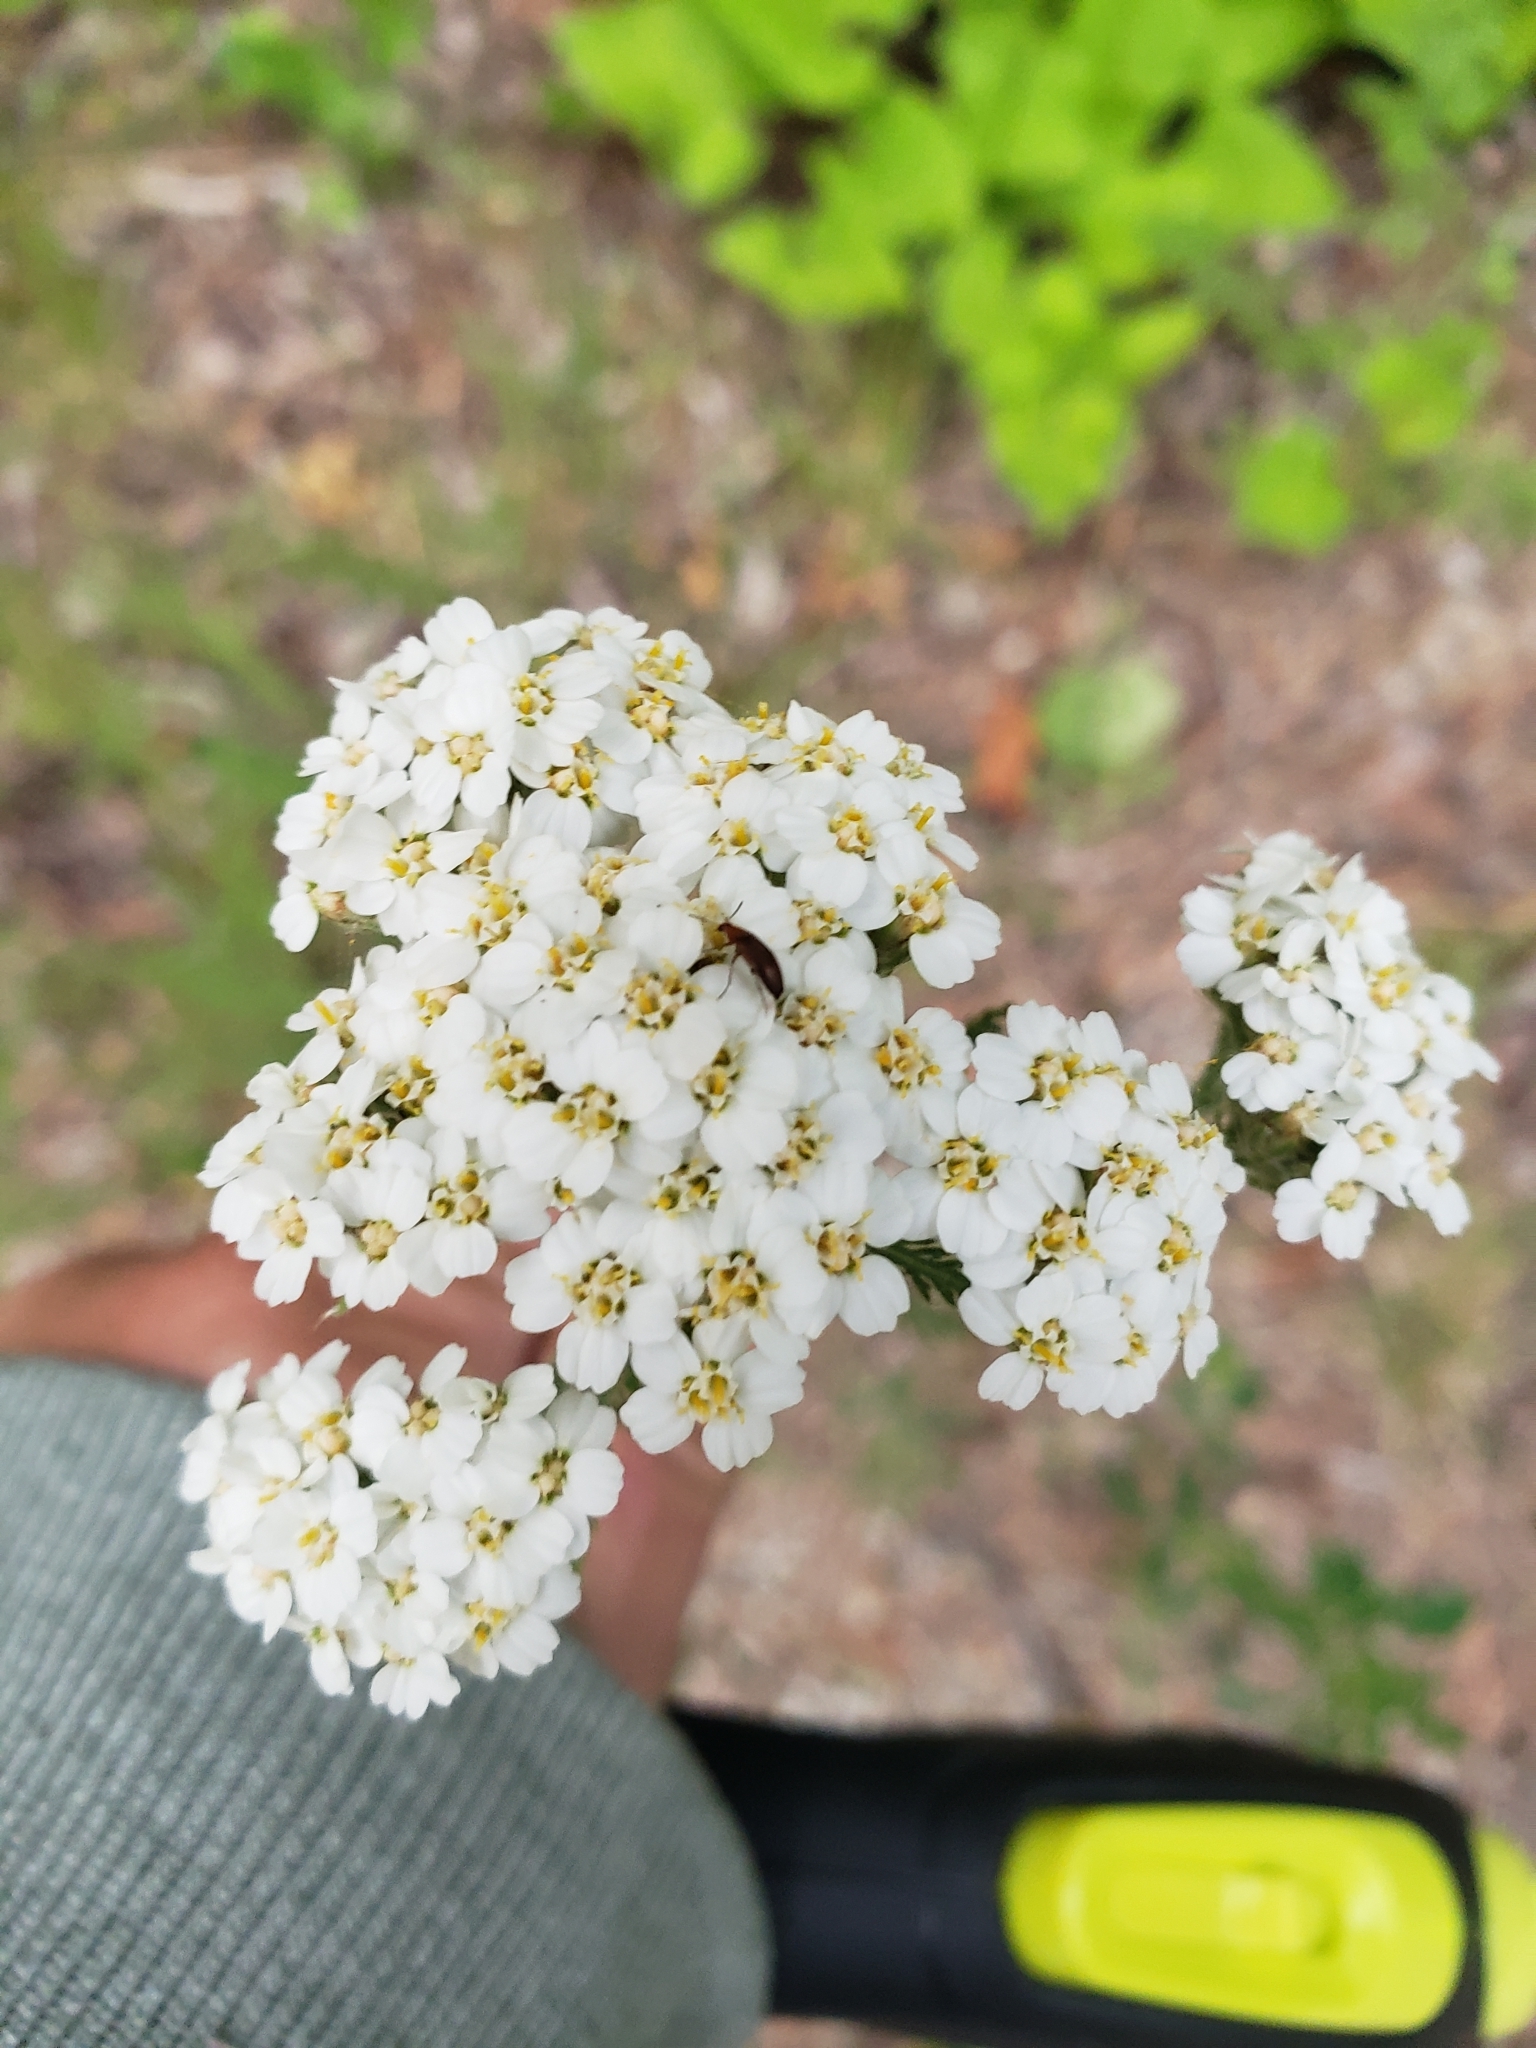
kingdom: Plantae
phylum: Tracheophyta
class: Magnoliopsida
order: Asterales
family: Asteraceae
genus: Achillea
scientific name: Achillea millefolium
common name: Yarrow
